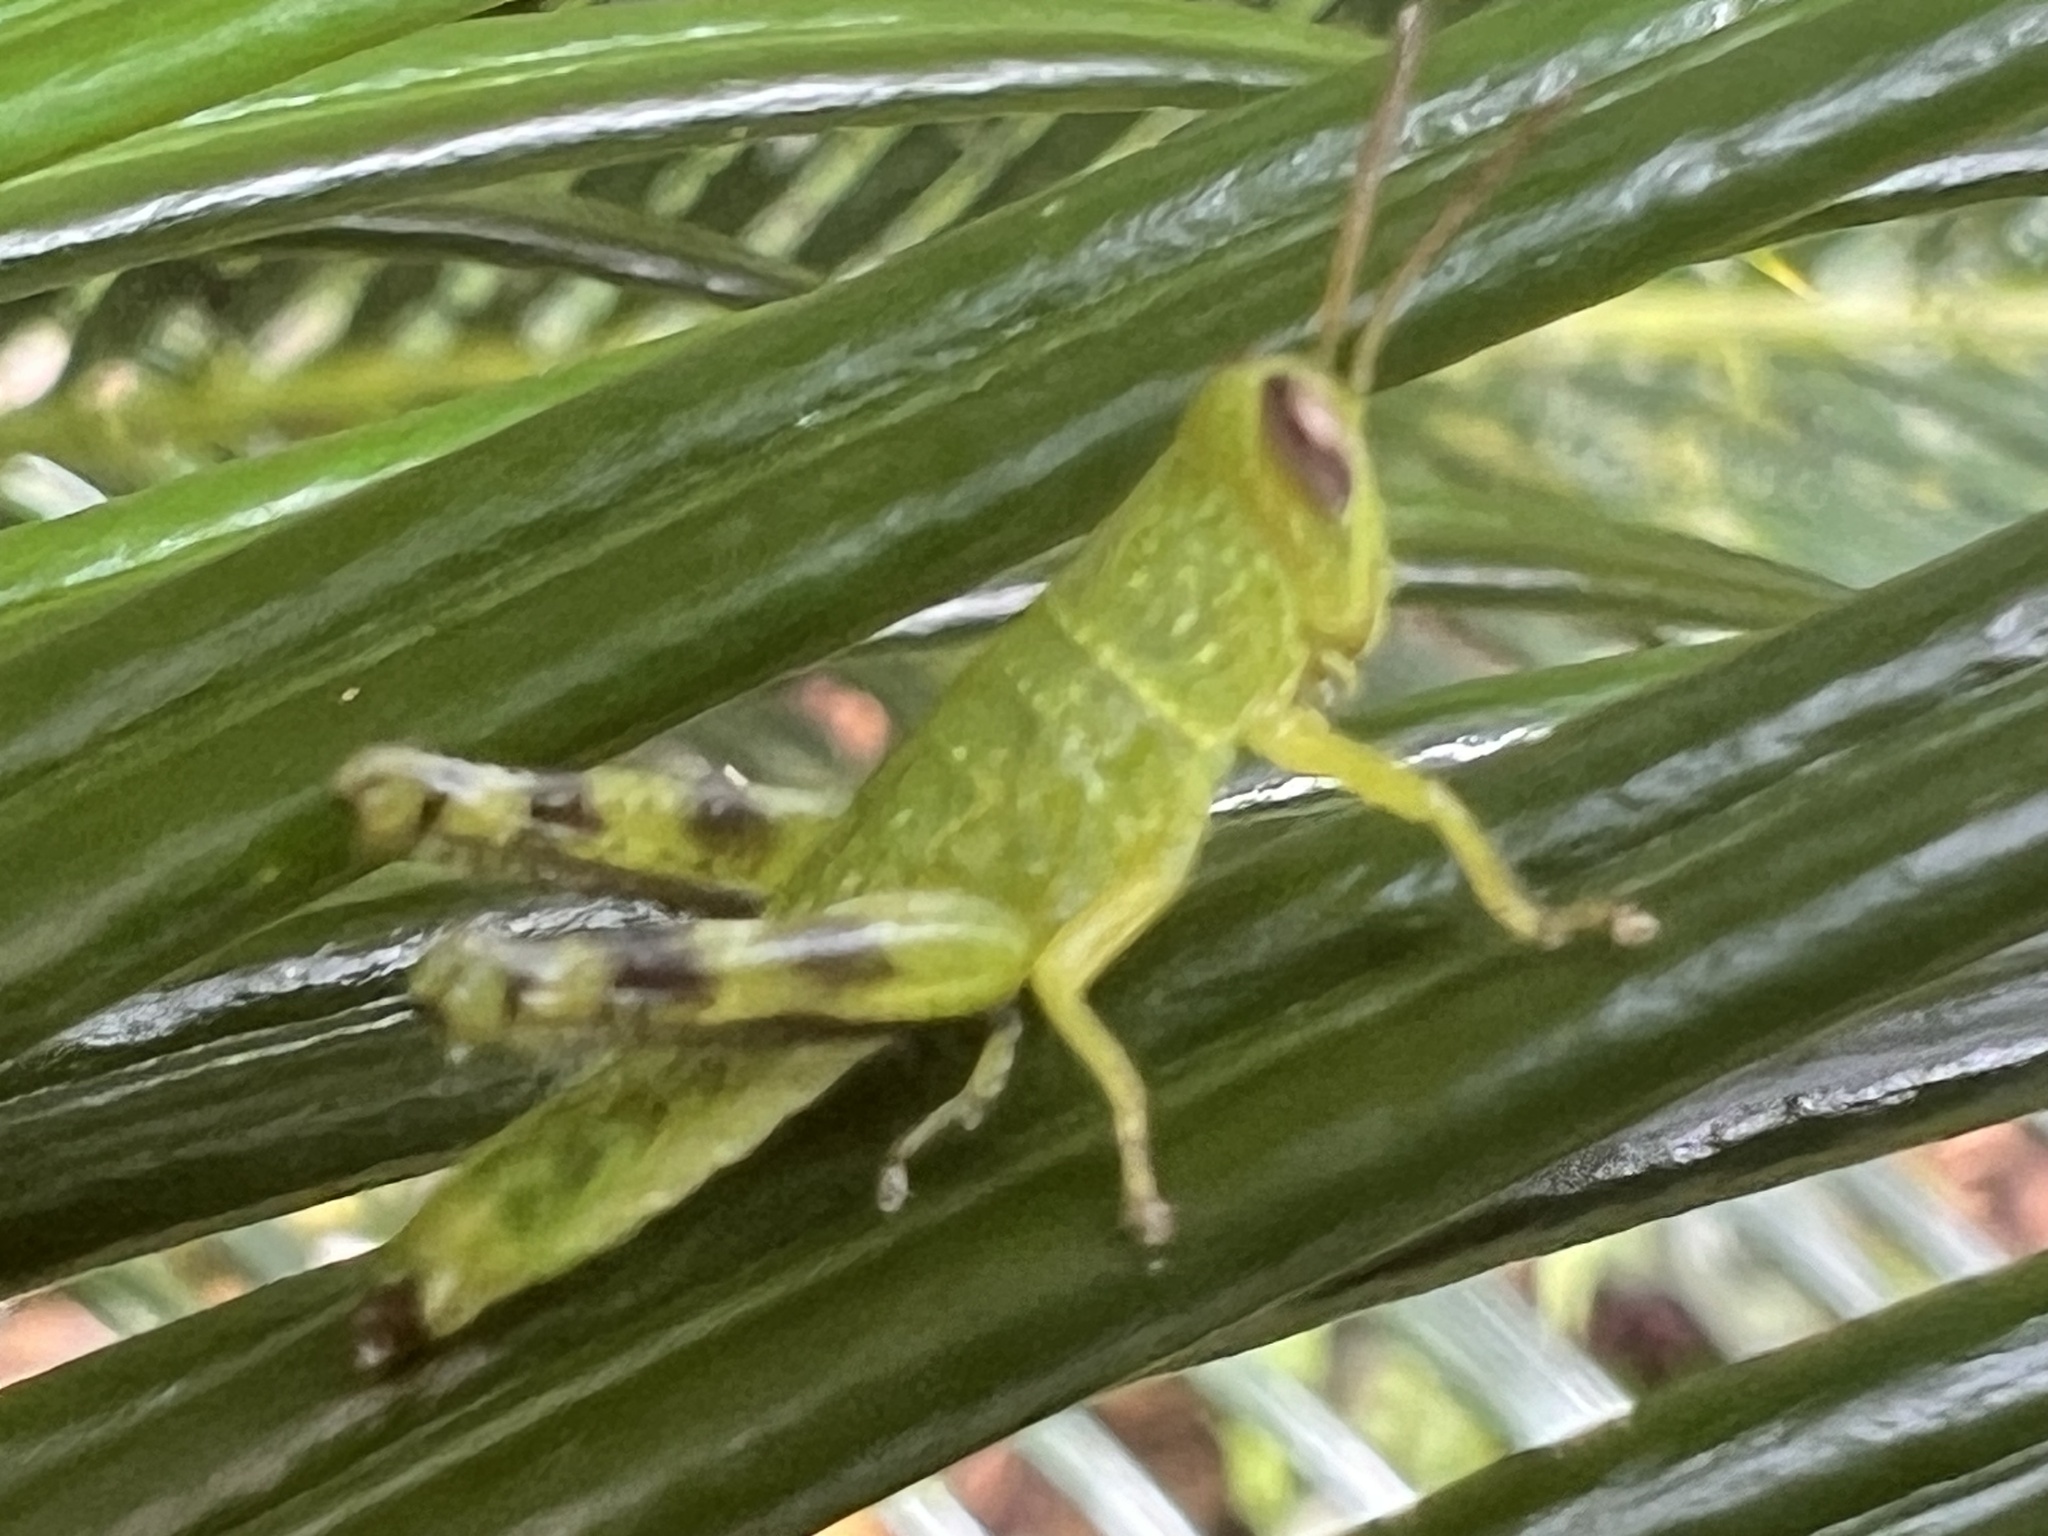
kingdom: Animalia
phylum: Arthropoda
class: Insecta
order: Orthoptera
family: Acrididae
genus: Valanga
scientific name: Valanga irregularis
